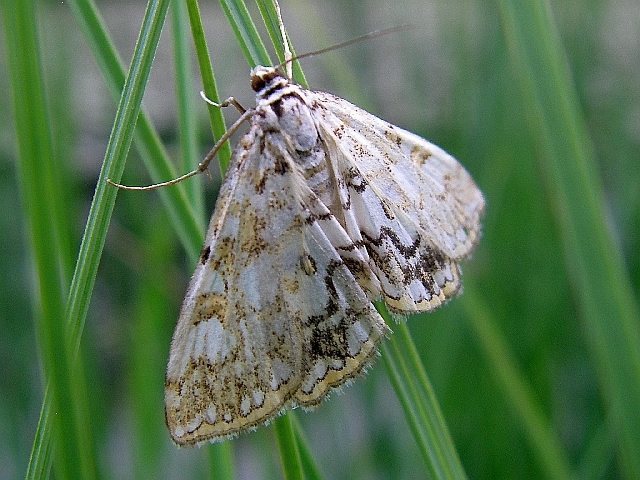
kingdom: Animalia
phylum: Arthropoda
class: Insecta
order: Lepidoptera
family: Crambidae
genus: Elophila
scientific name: Elophila nymphaeata
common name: Brown china-mark
